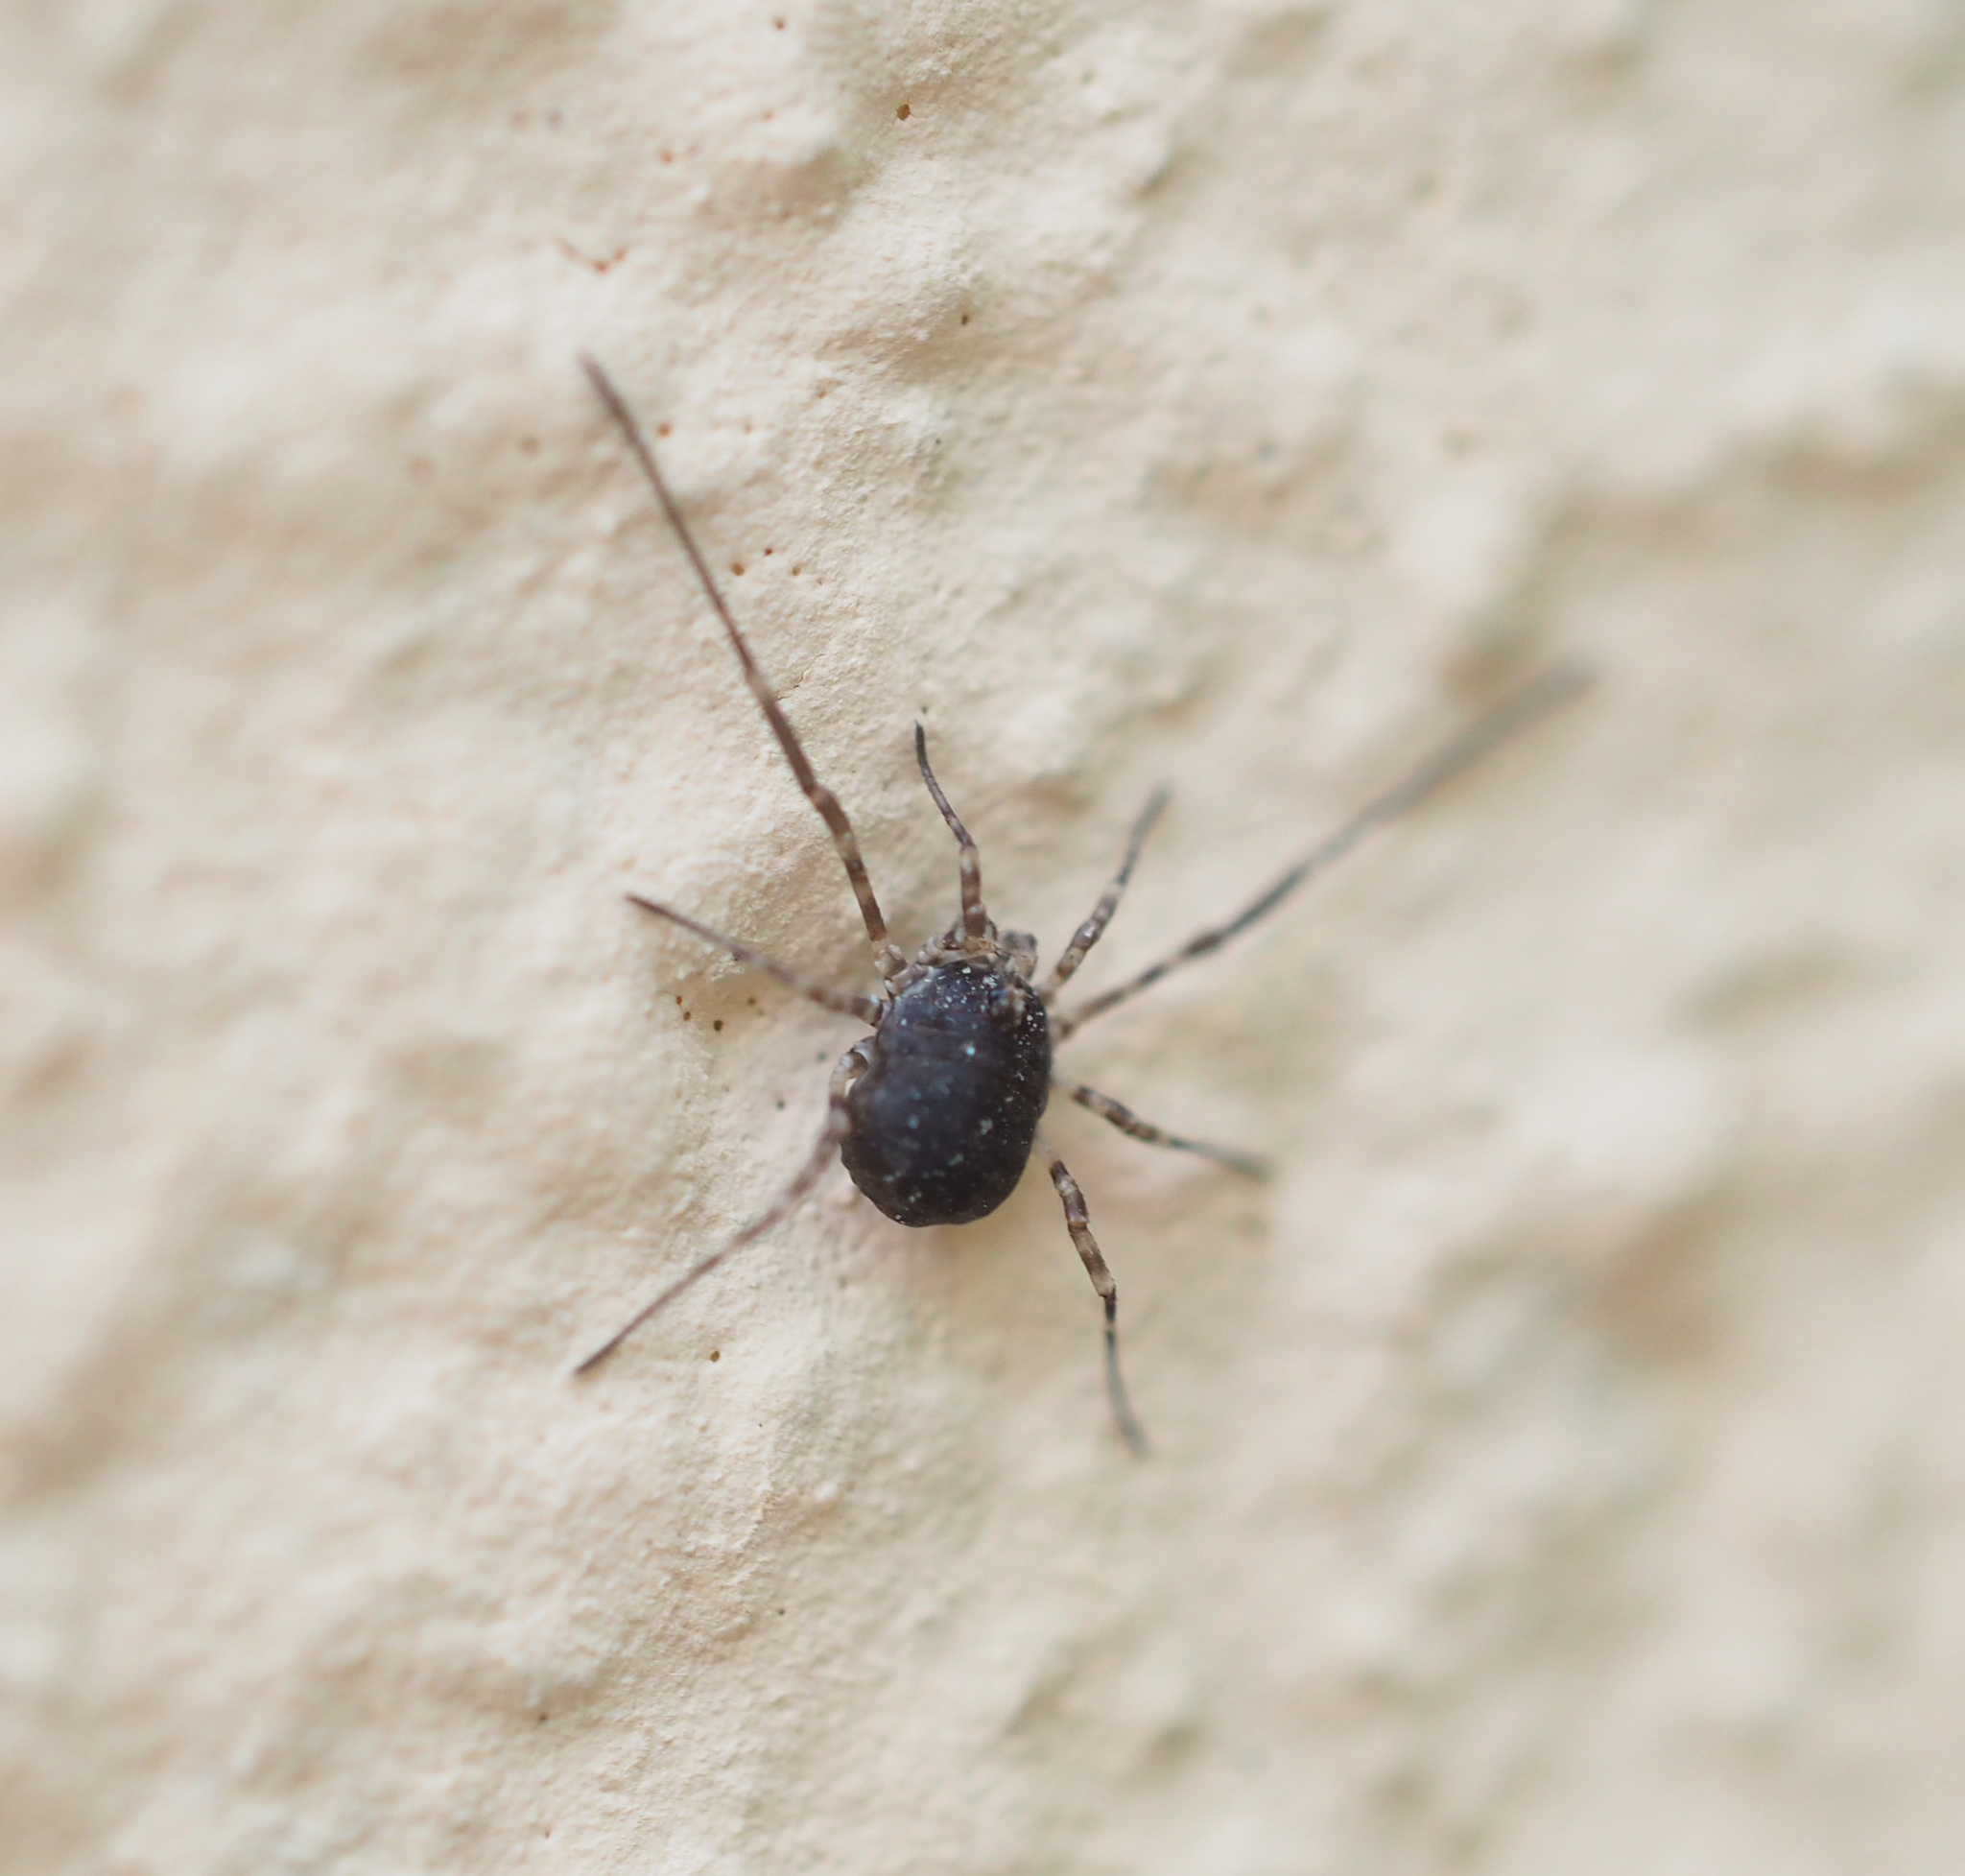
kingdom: Animalia
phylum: Arthropoda
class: Arachnida
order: Opiliones
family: Phalangiidae
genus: Lacinius
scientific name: Lacinius dentiger
